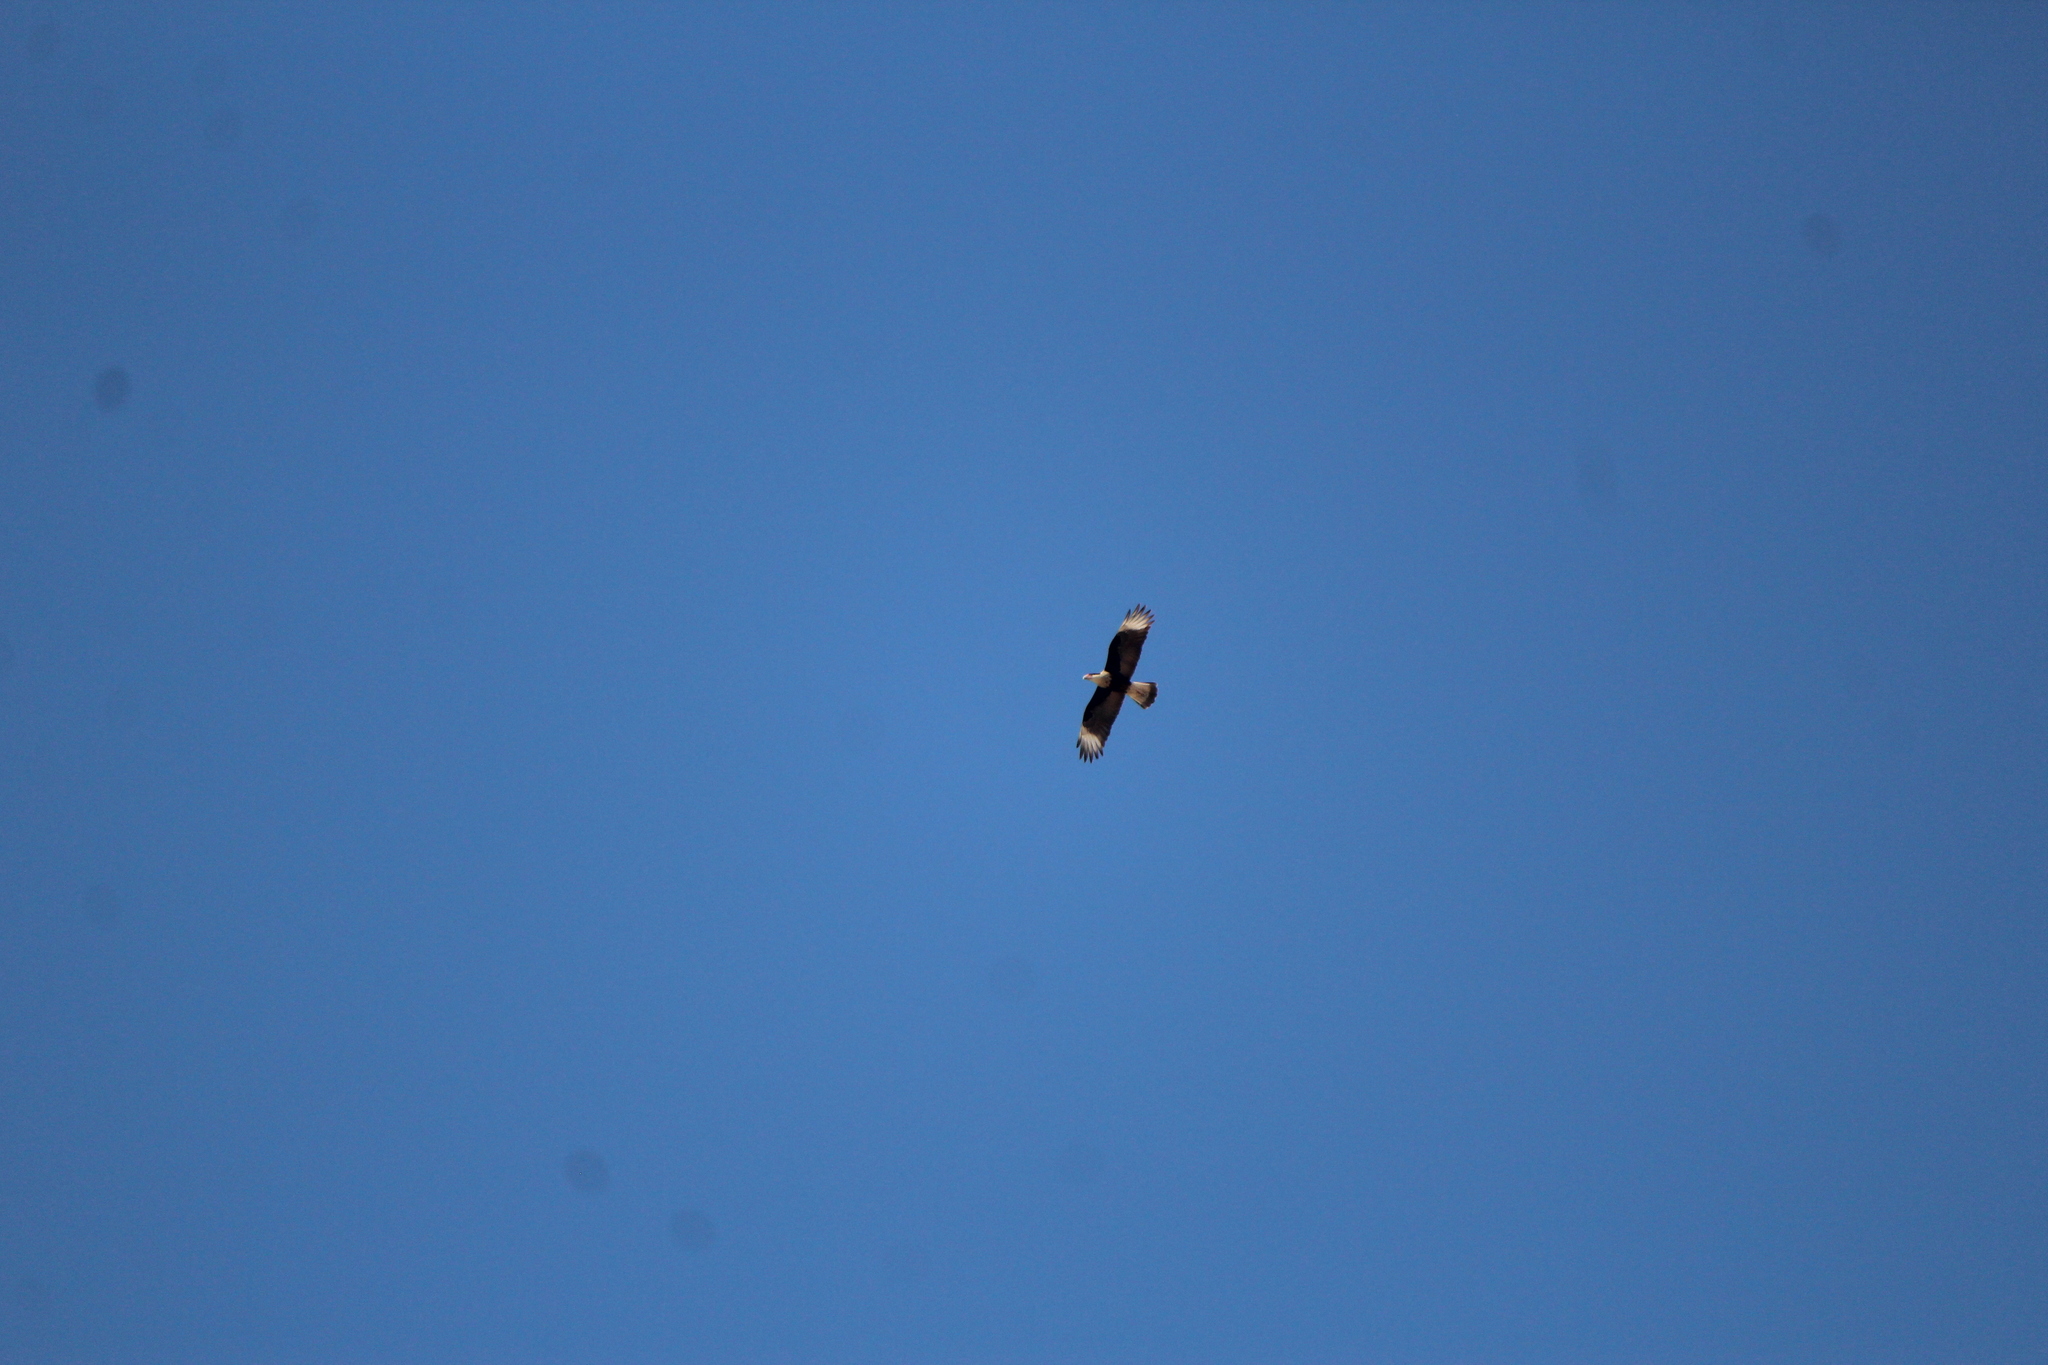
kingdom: Animalia
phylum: Chordata
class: Aves
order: Falconiformes
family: Falconidae
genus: Caracara
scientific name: Caracara plancus
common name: Southern caracara
